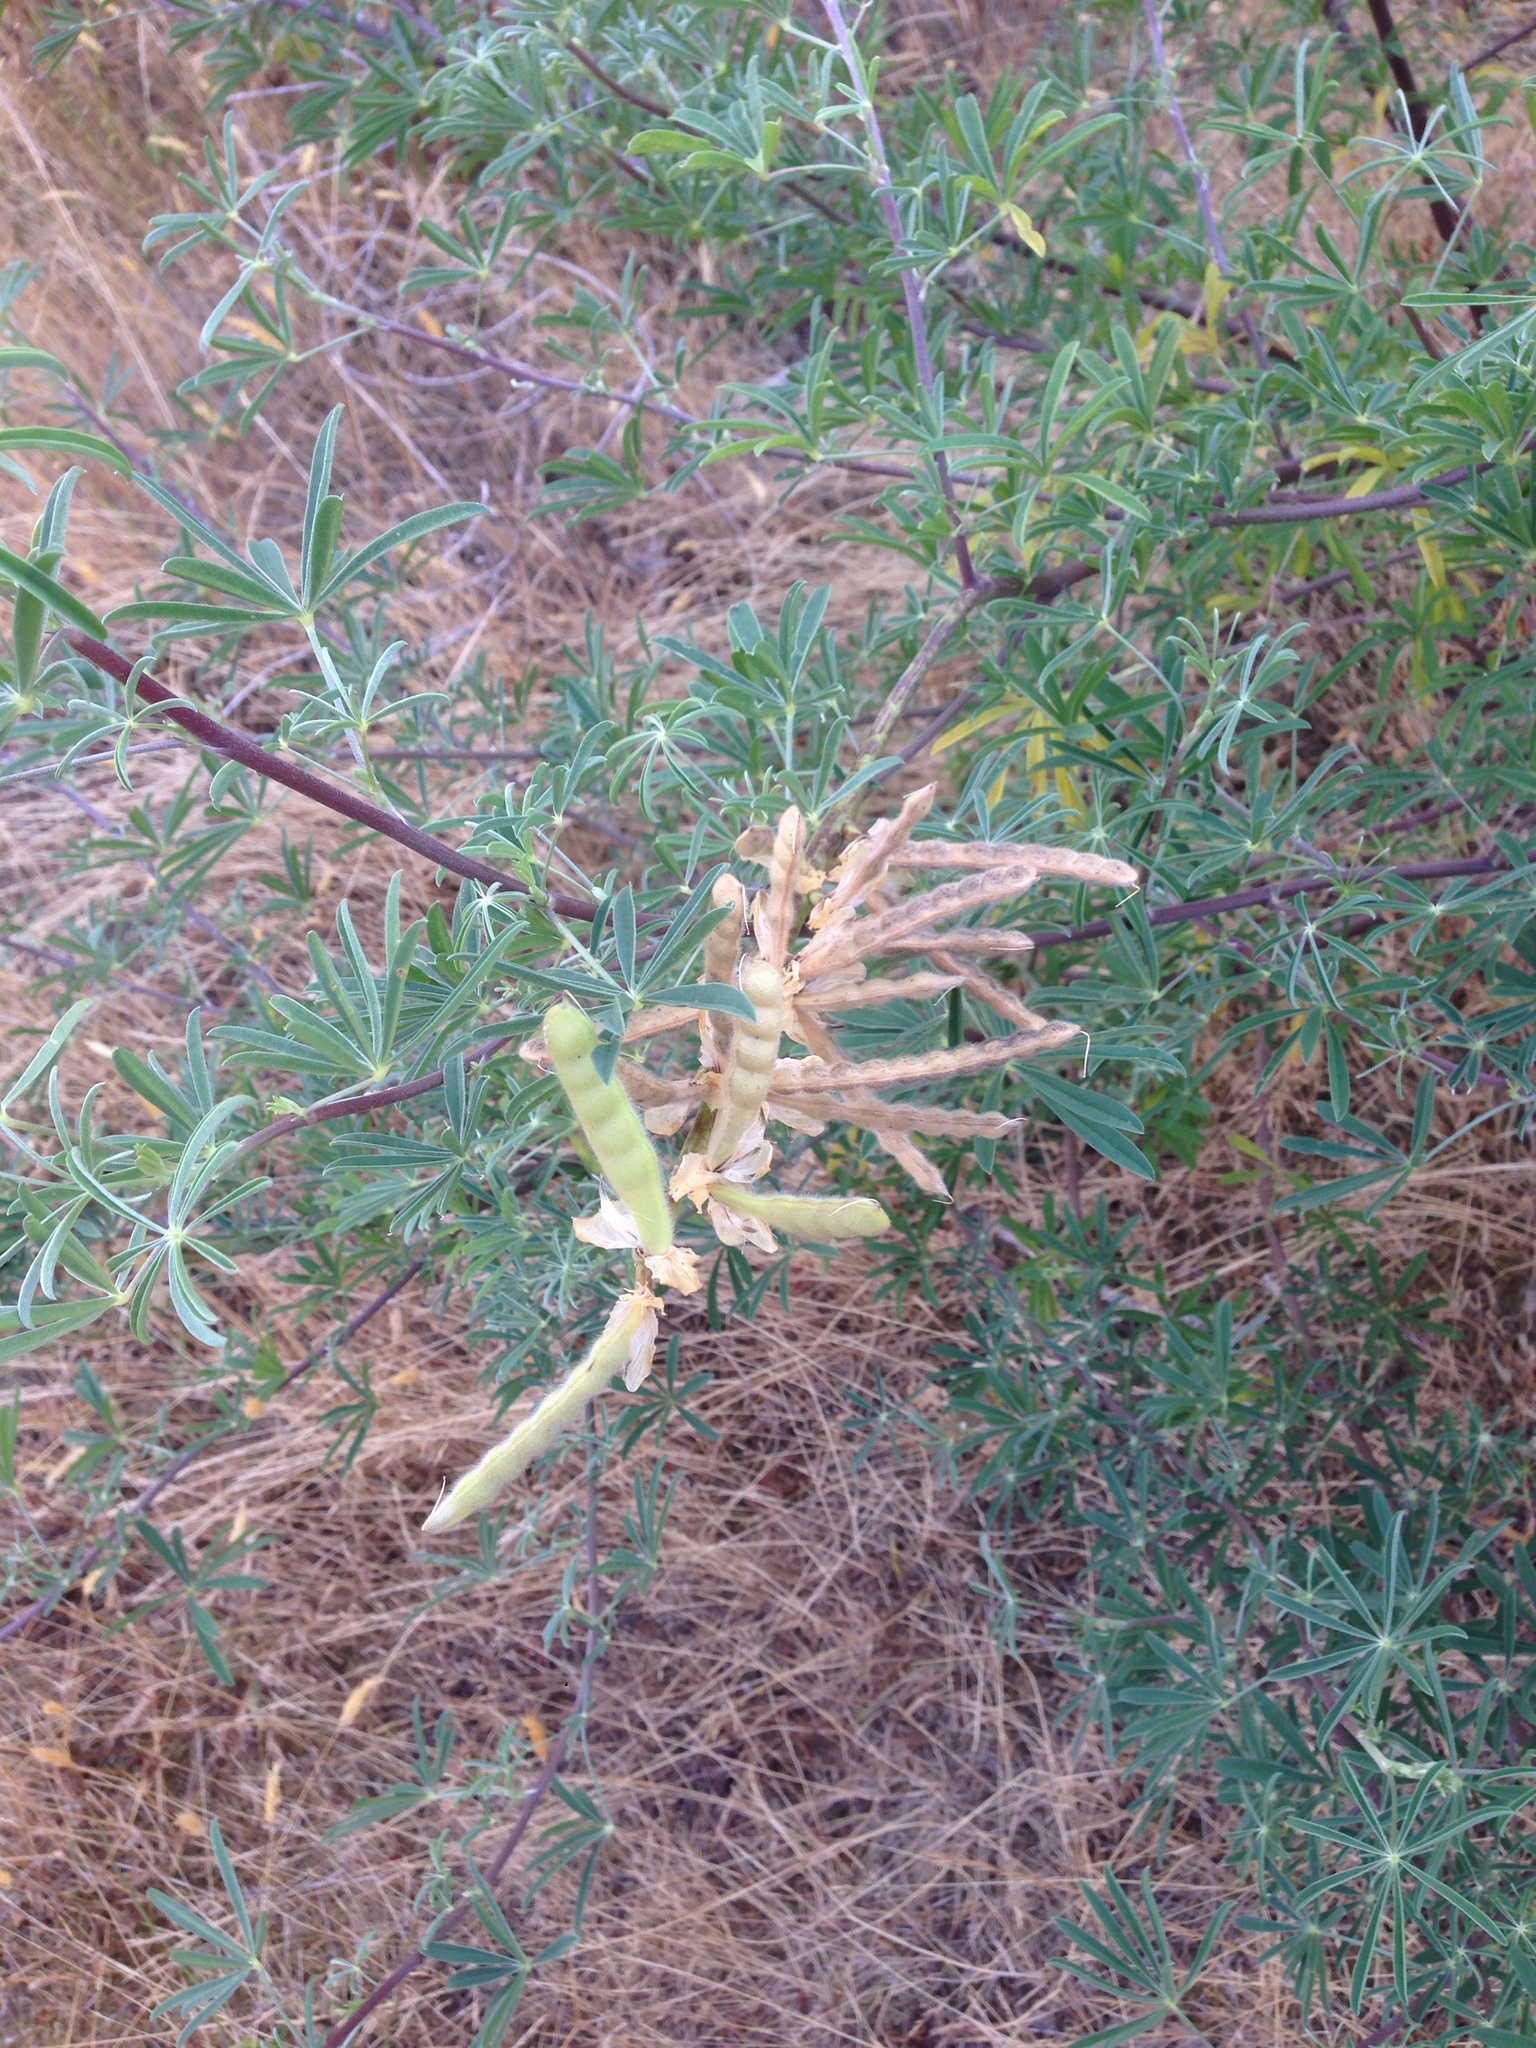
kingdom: Plantae
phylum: Tracheophyta
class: Magnoliopsida
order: Fabales
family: Fabaceae
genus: Lupinus
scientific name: Lupinus arboreus
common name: Yellow bush lupine
